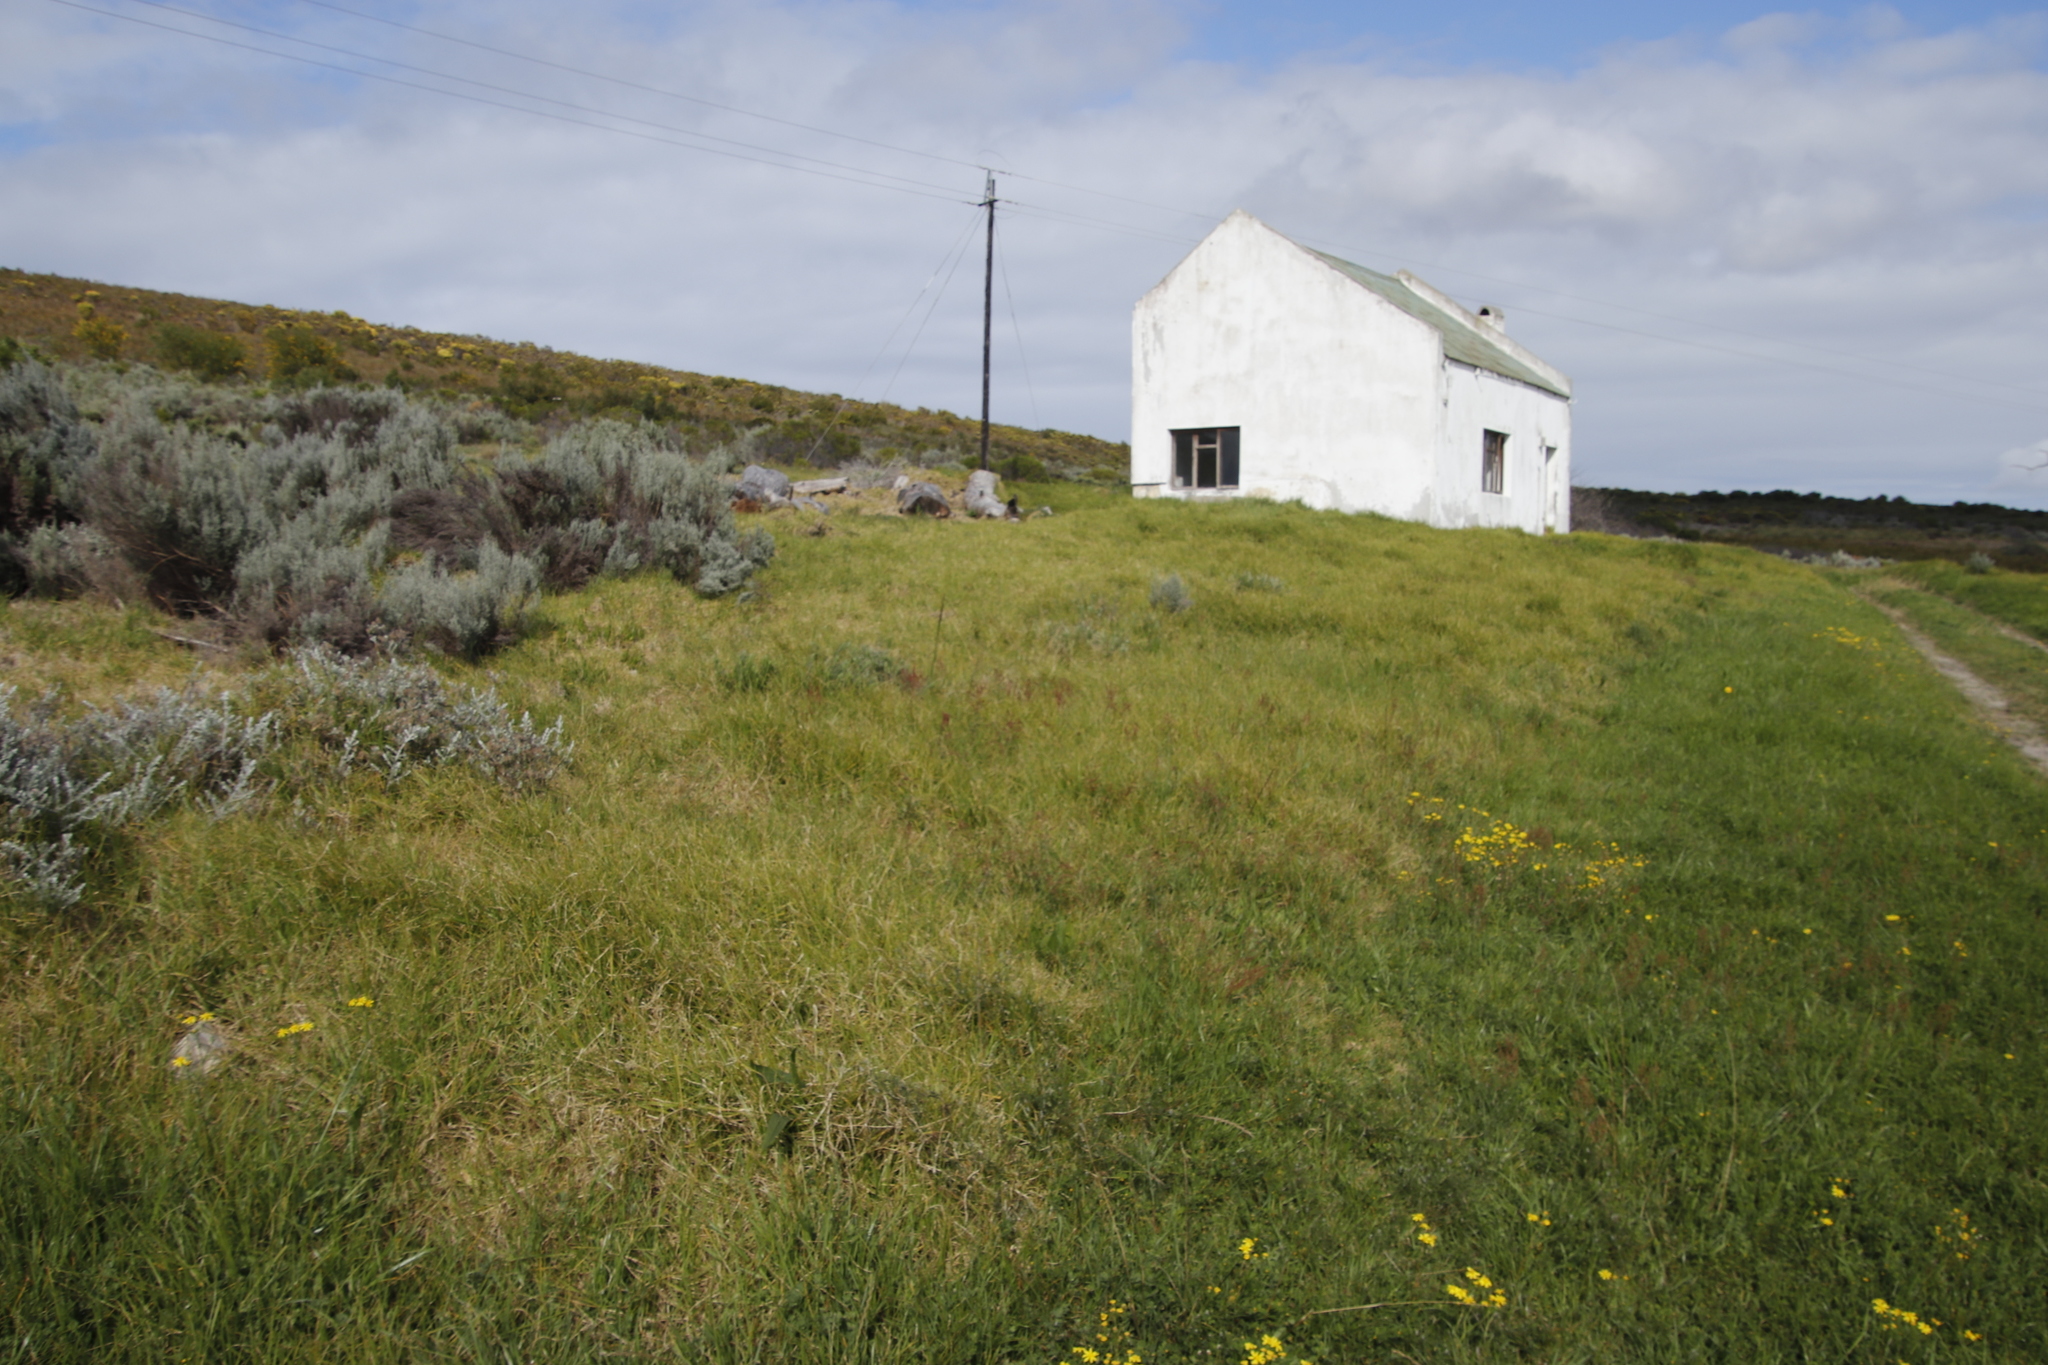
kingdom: Plantae
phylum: Tracheophyta
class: Liliopsida
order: Poales
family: Poaceae
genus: Cenchrus
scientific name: Cenchrus clandestinus
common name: Kikuyugrass
